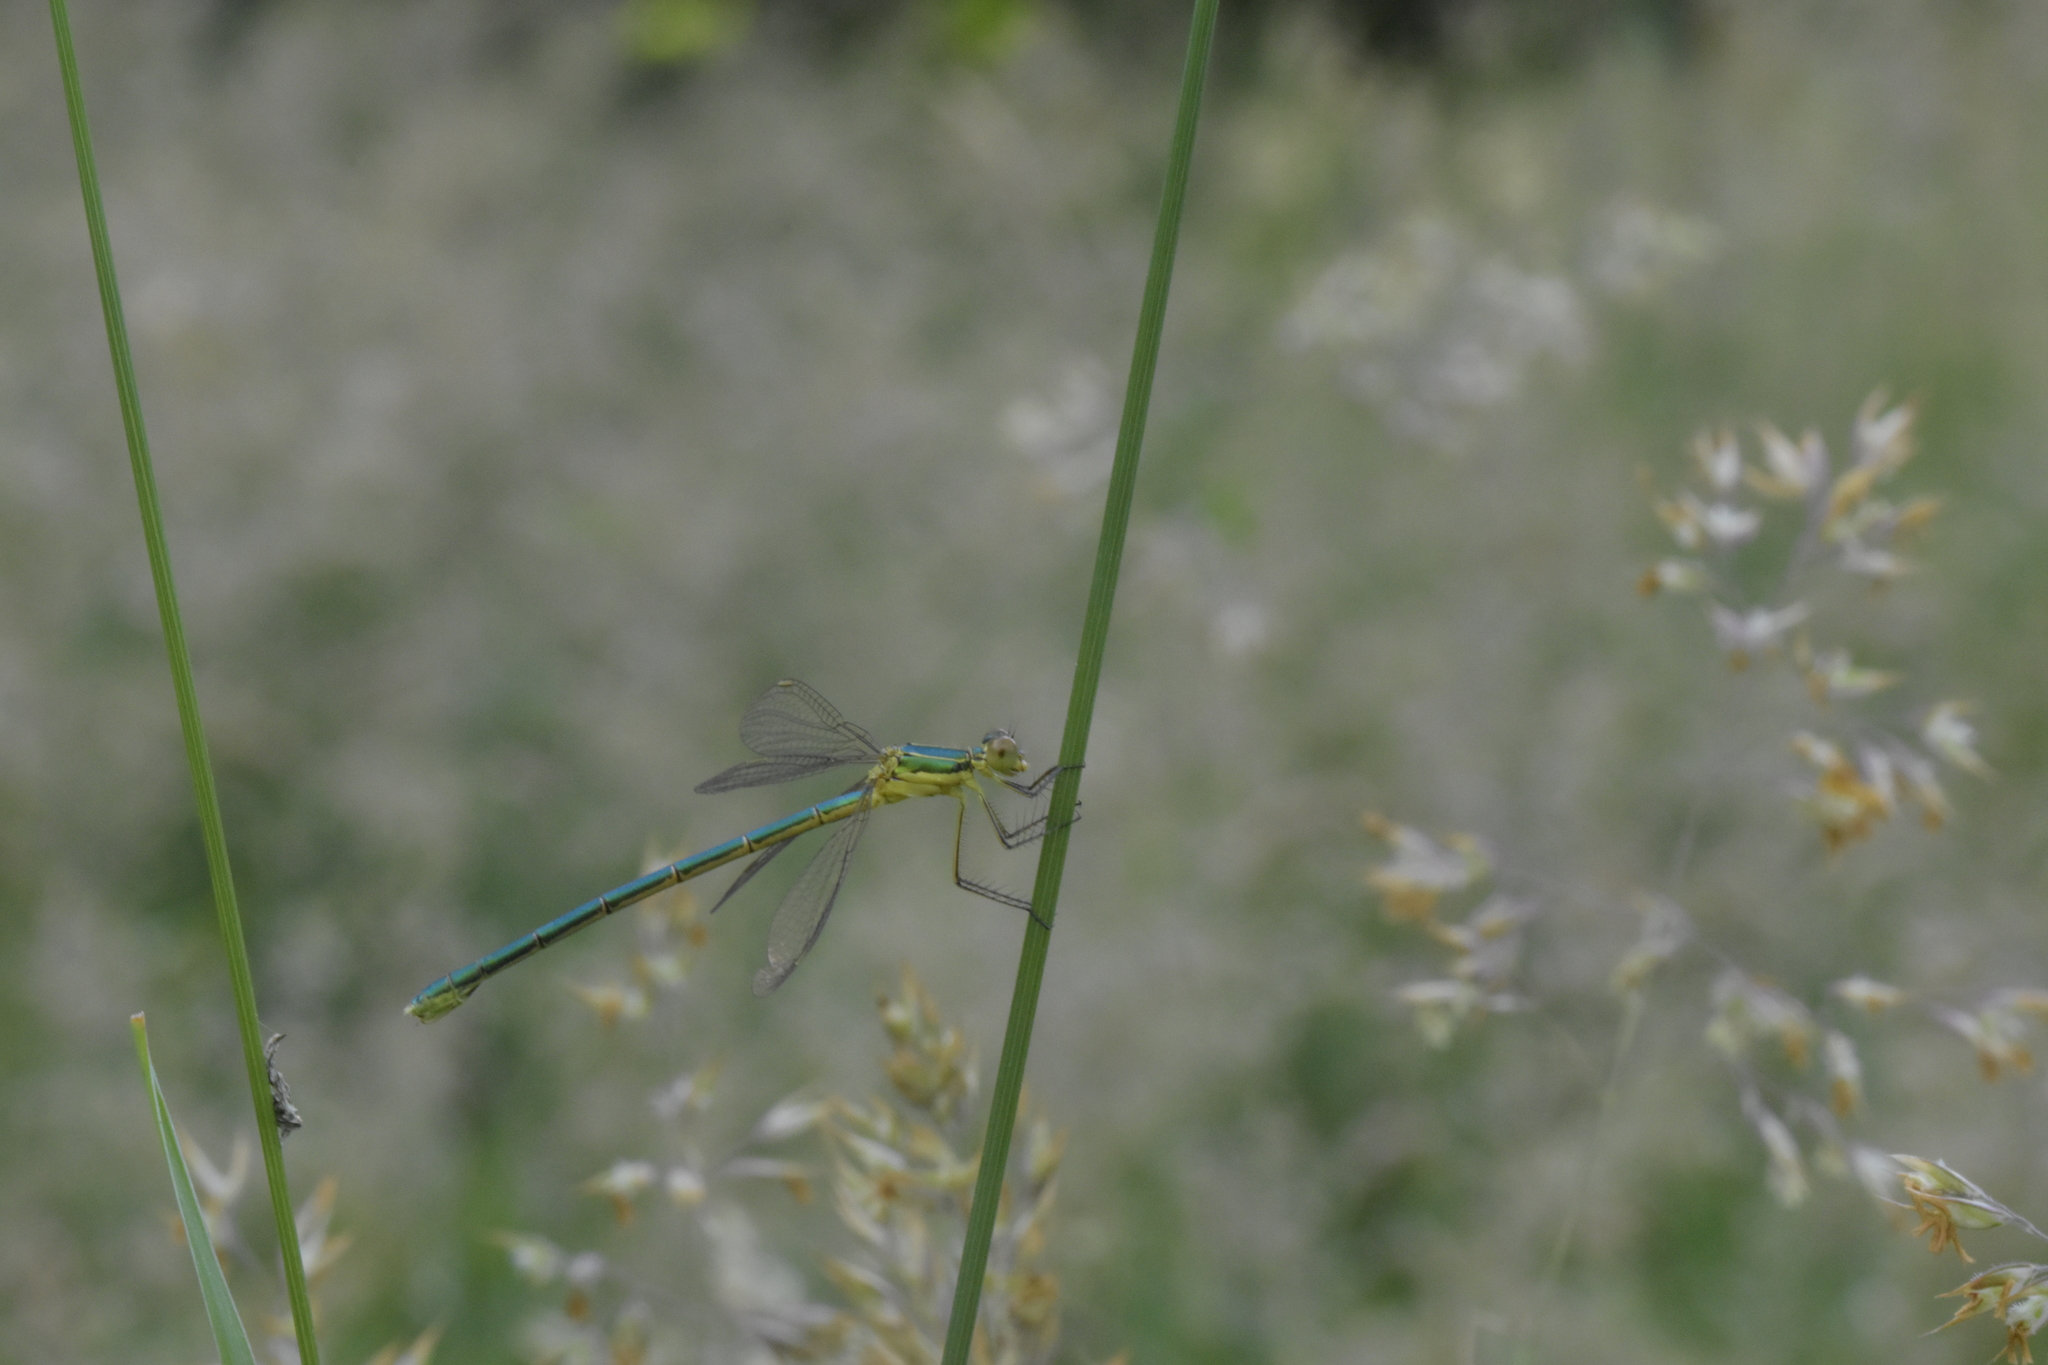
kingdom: Animalia
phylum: Arthropoda
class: Insecta
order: Odonata
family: Lestidae
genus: Lestes
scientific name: Lestes virens
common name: Small emerald spreadwing
